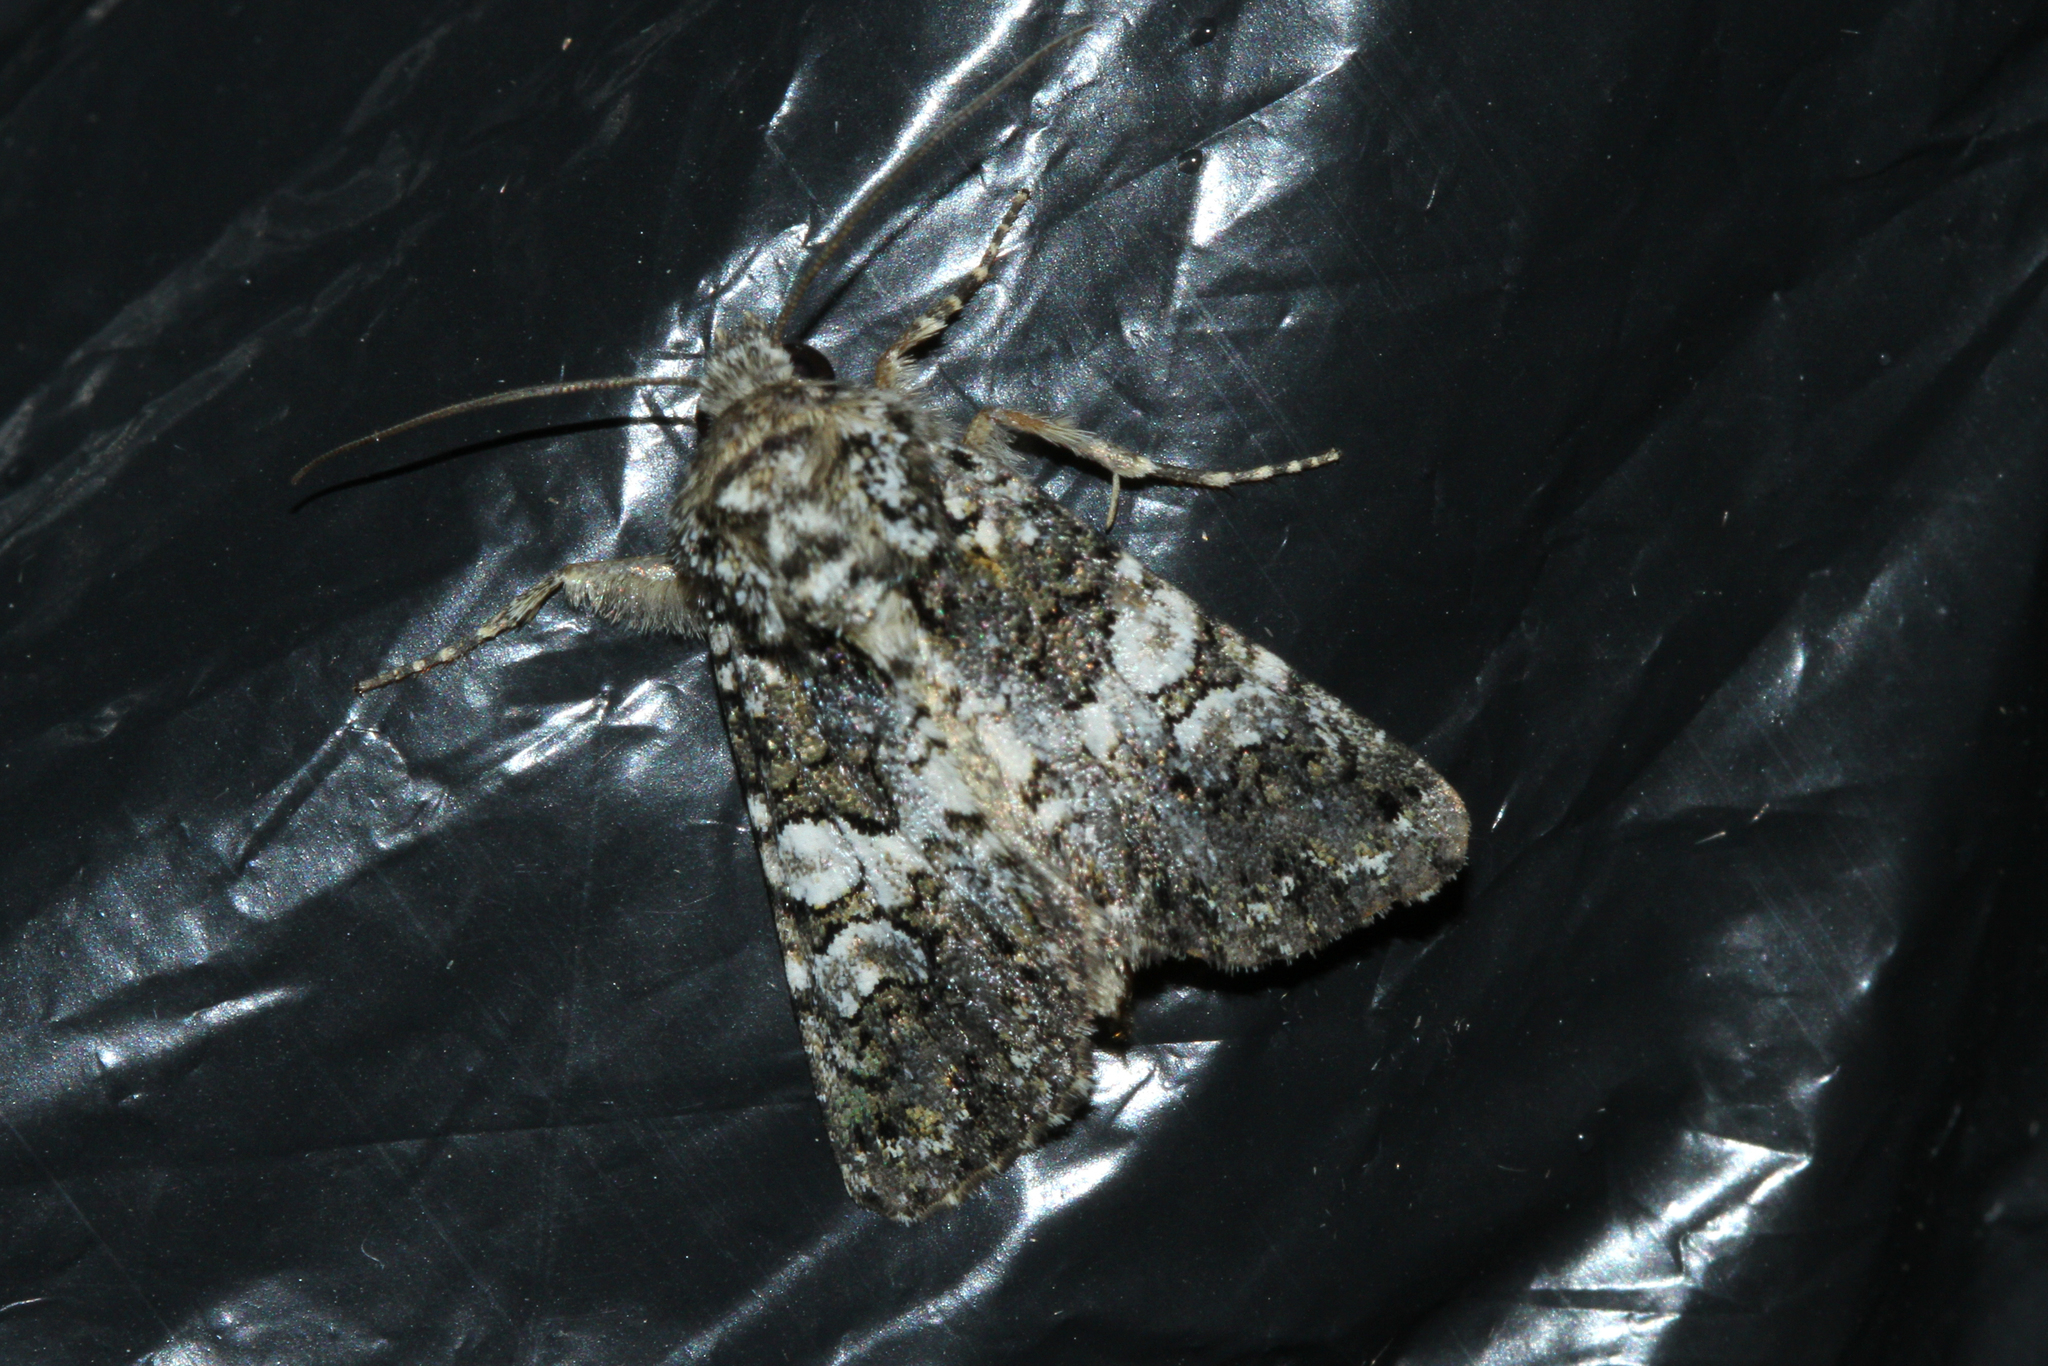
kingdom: Animalia
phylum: Arthropoda
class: Insecta
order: Lepidoptera
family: Noctuidae
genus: Hadena
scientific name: Hadena compta
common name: Varied coronet
